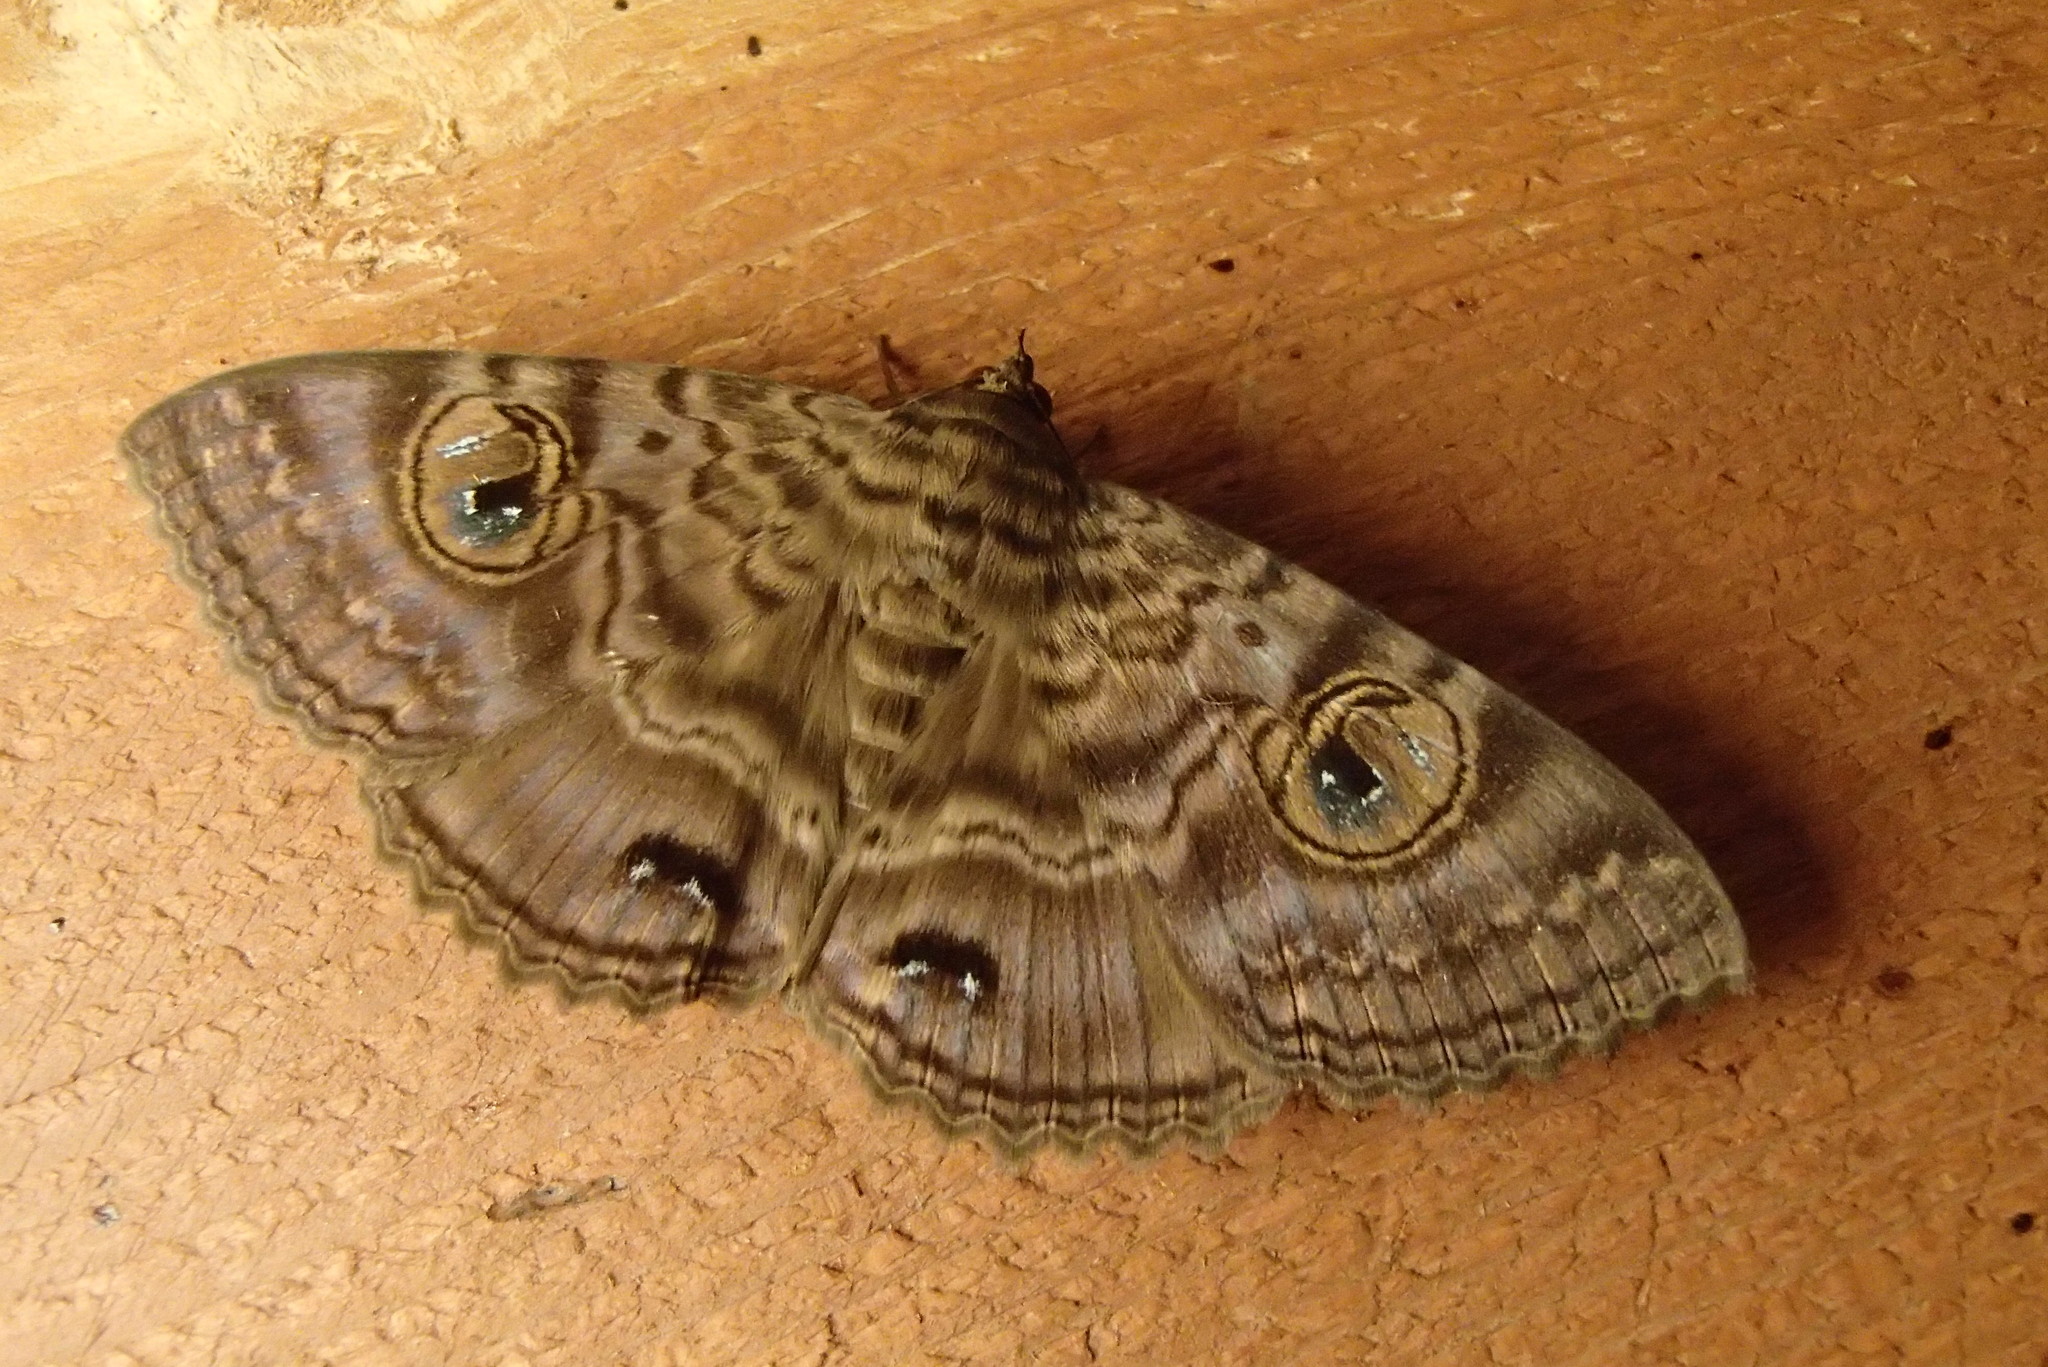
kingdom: Animalia
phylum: Arthropoda
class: Insecta
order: Lepidoptera
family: Erebidae
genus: Speiredonia
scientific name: Speiredonia spectans
